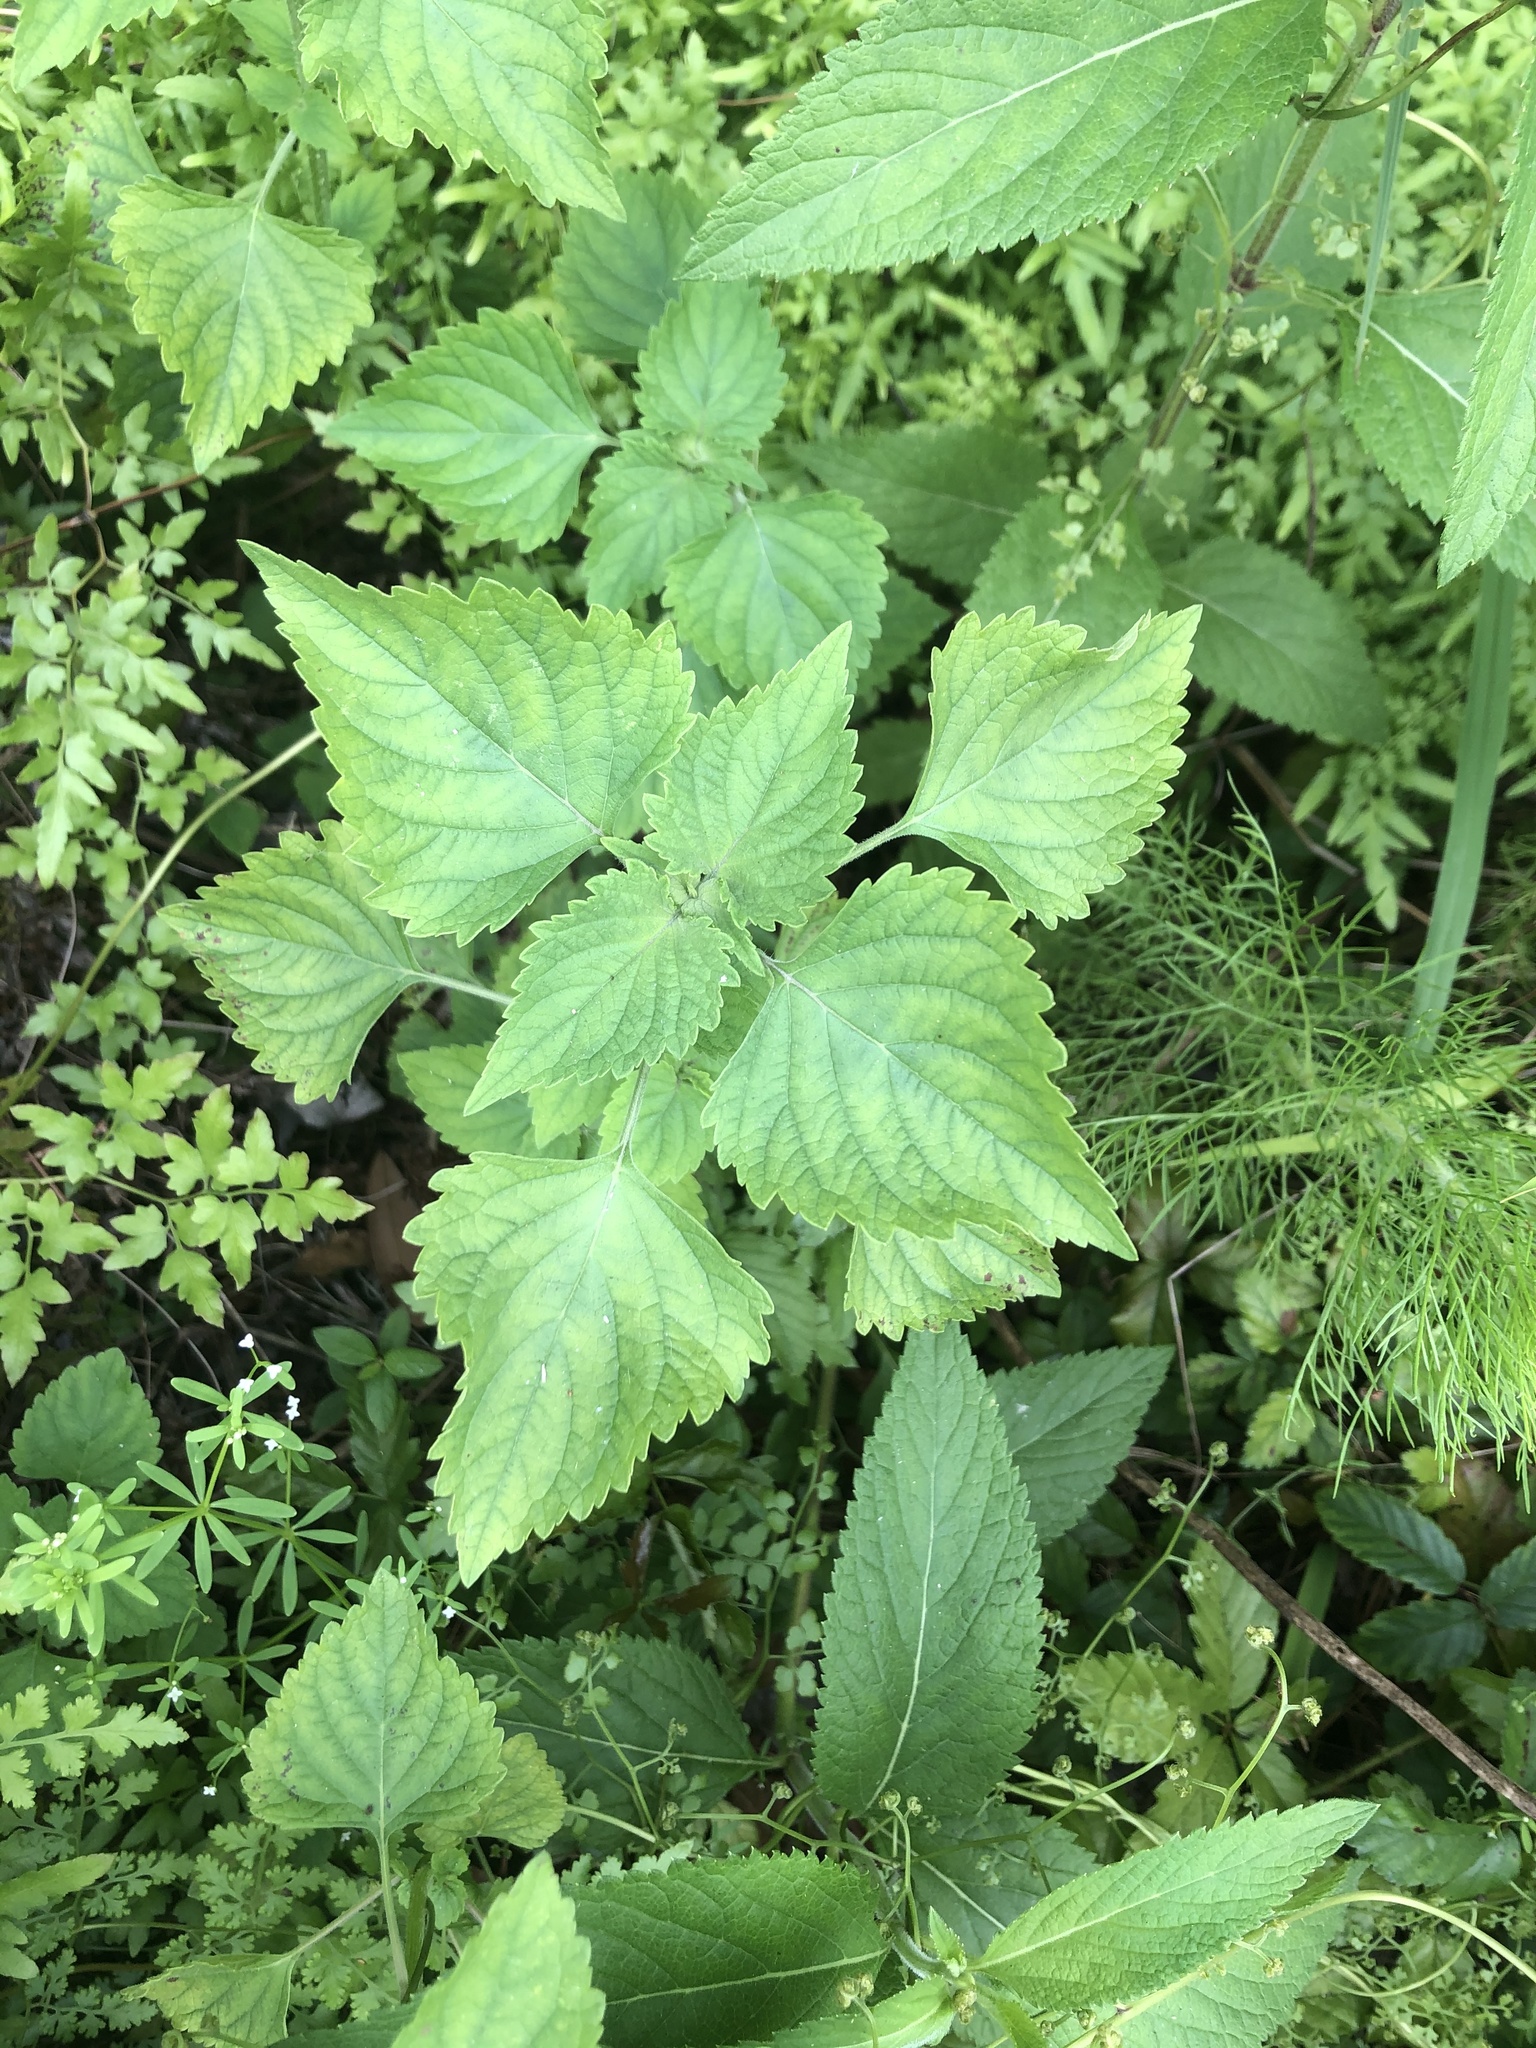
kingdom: Plantae
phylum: Tracheophyta
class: Magnoliopsida
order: Lamiales
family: Lamiaceae
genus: Cantinoa
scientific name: Cantinoa mutabilis
